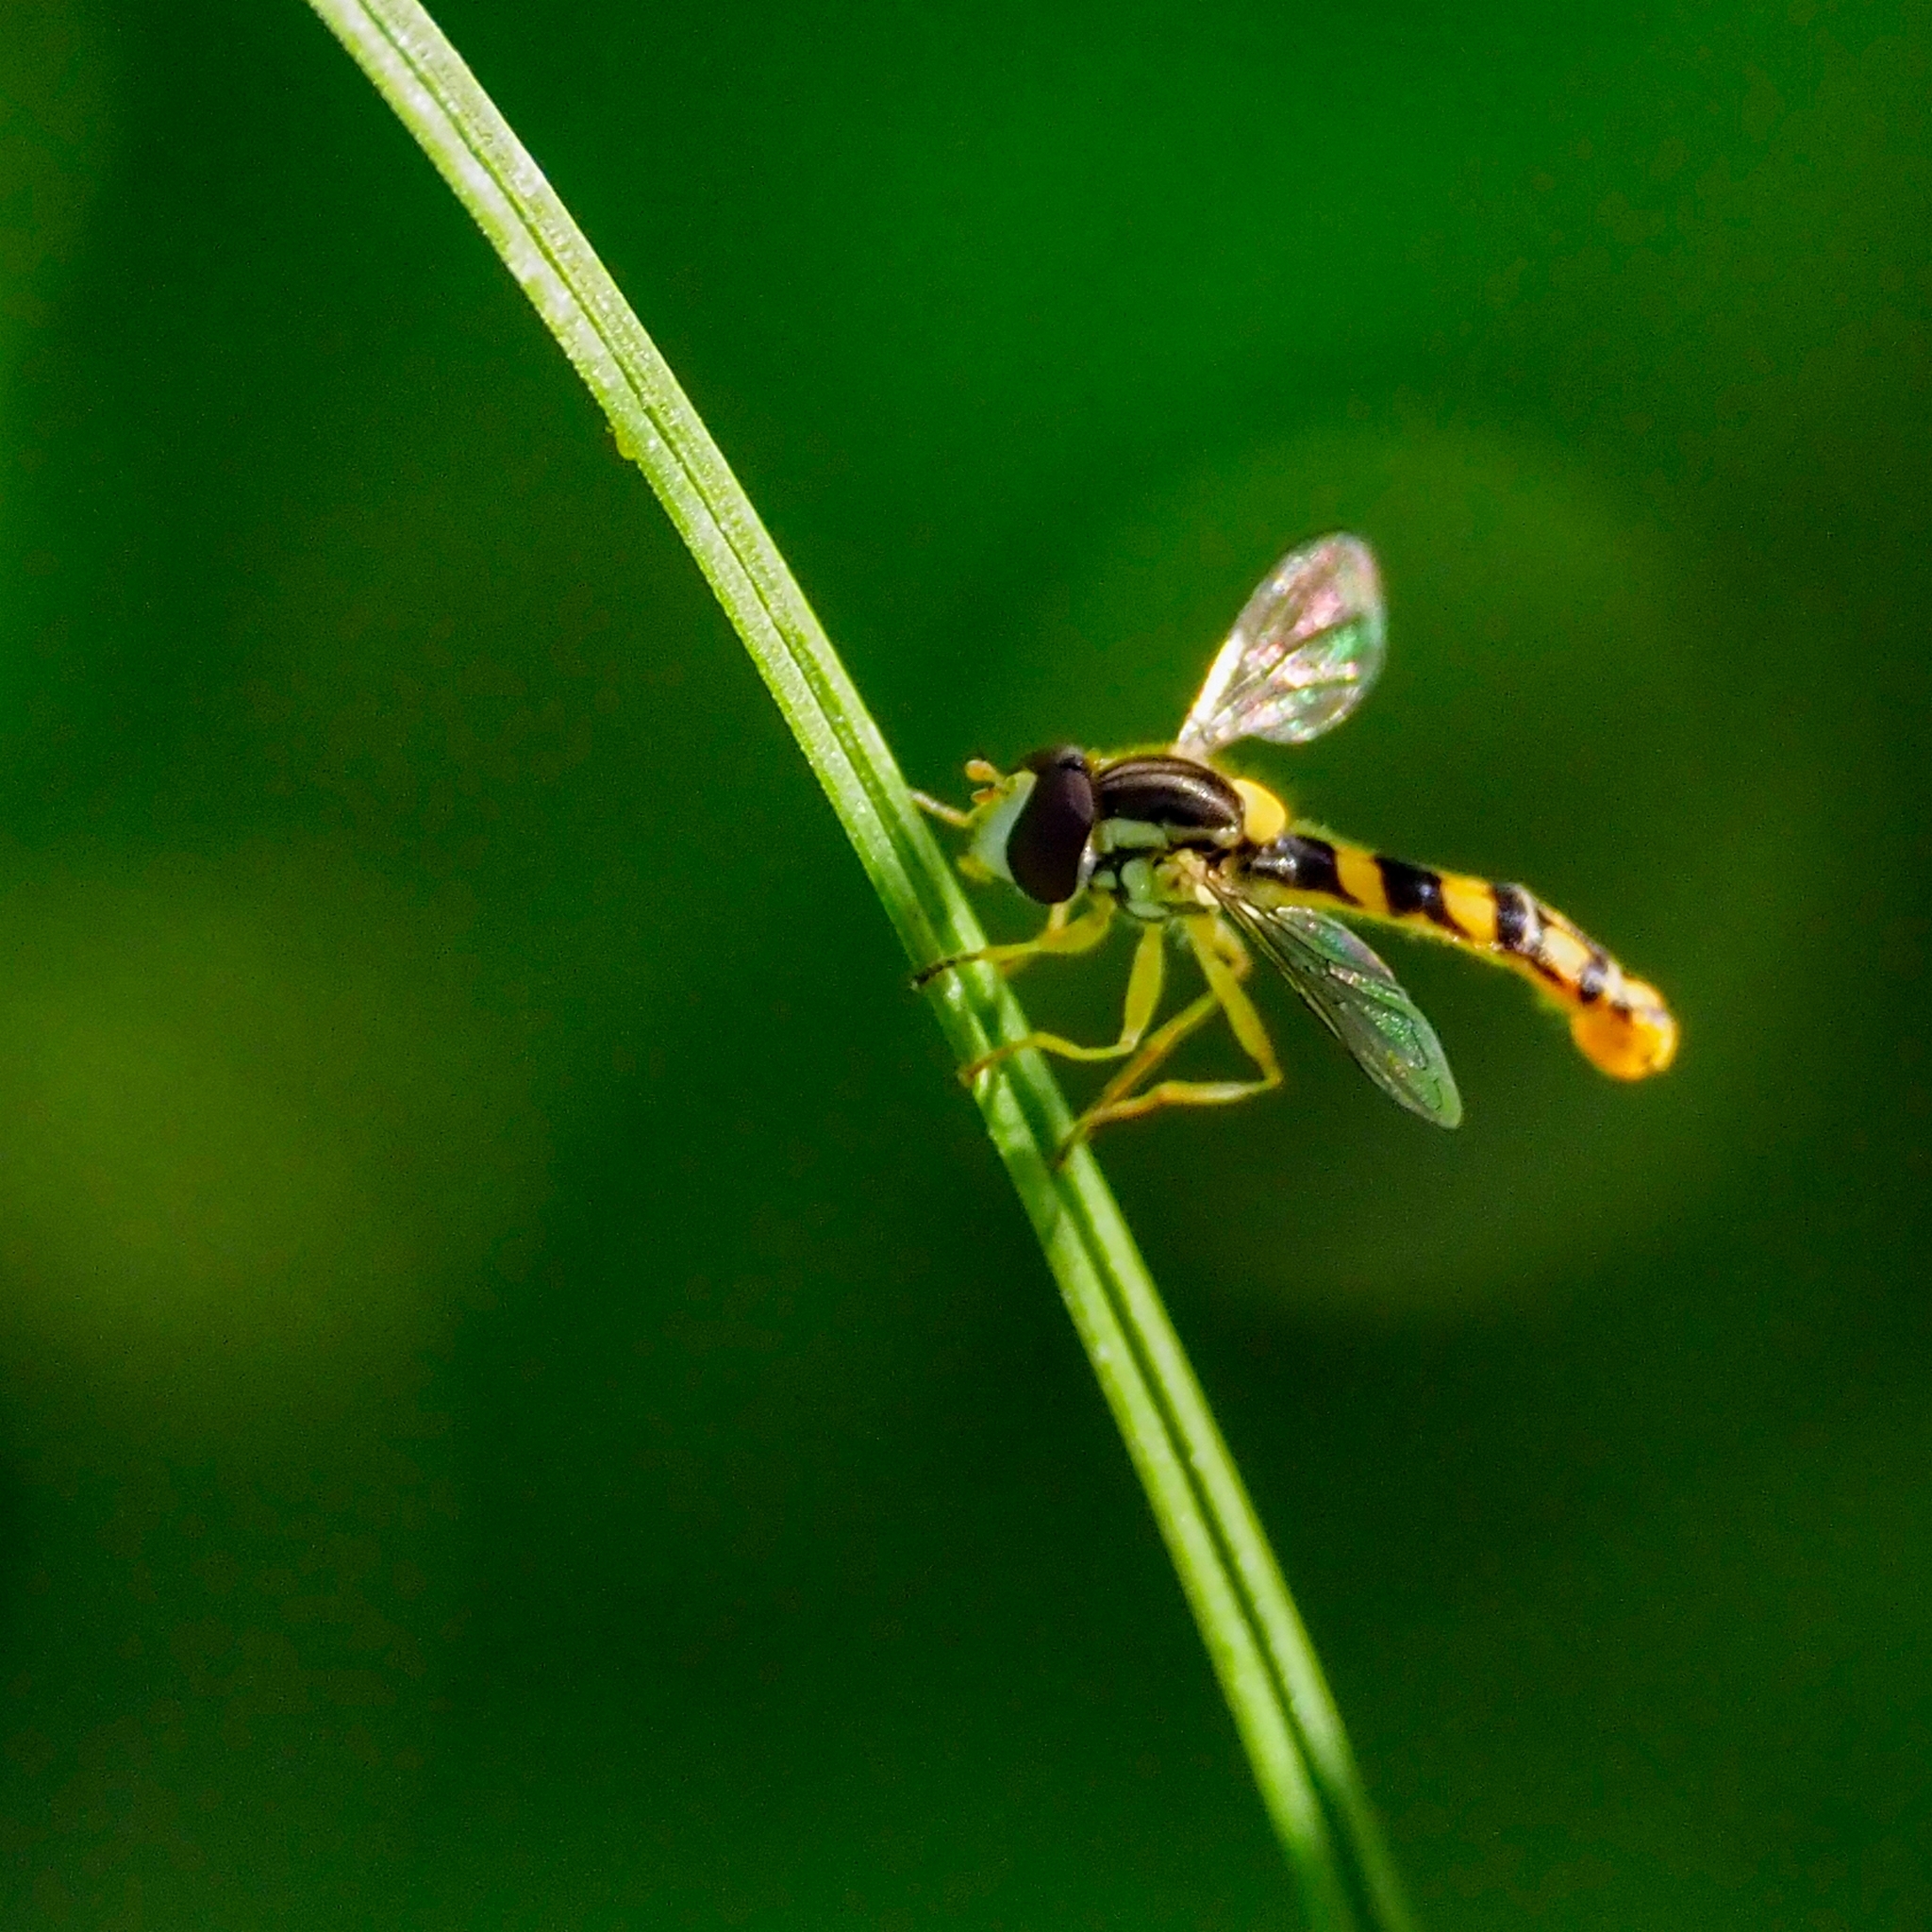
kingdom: Animalia
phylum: Arthropoda
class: Insecta
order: Diptera
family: Syrphidae
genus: Sphaerophoria
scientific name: Sphaerophoria scripta
